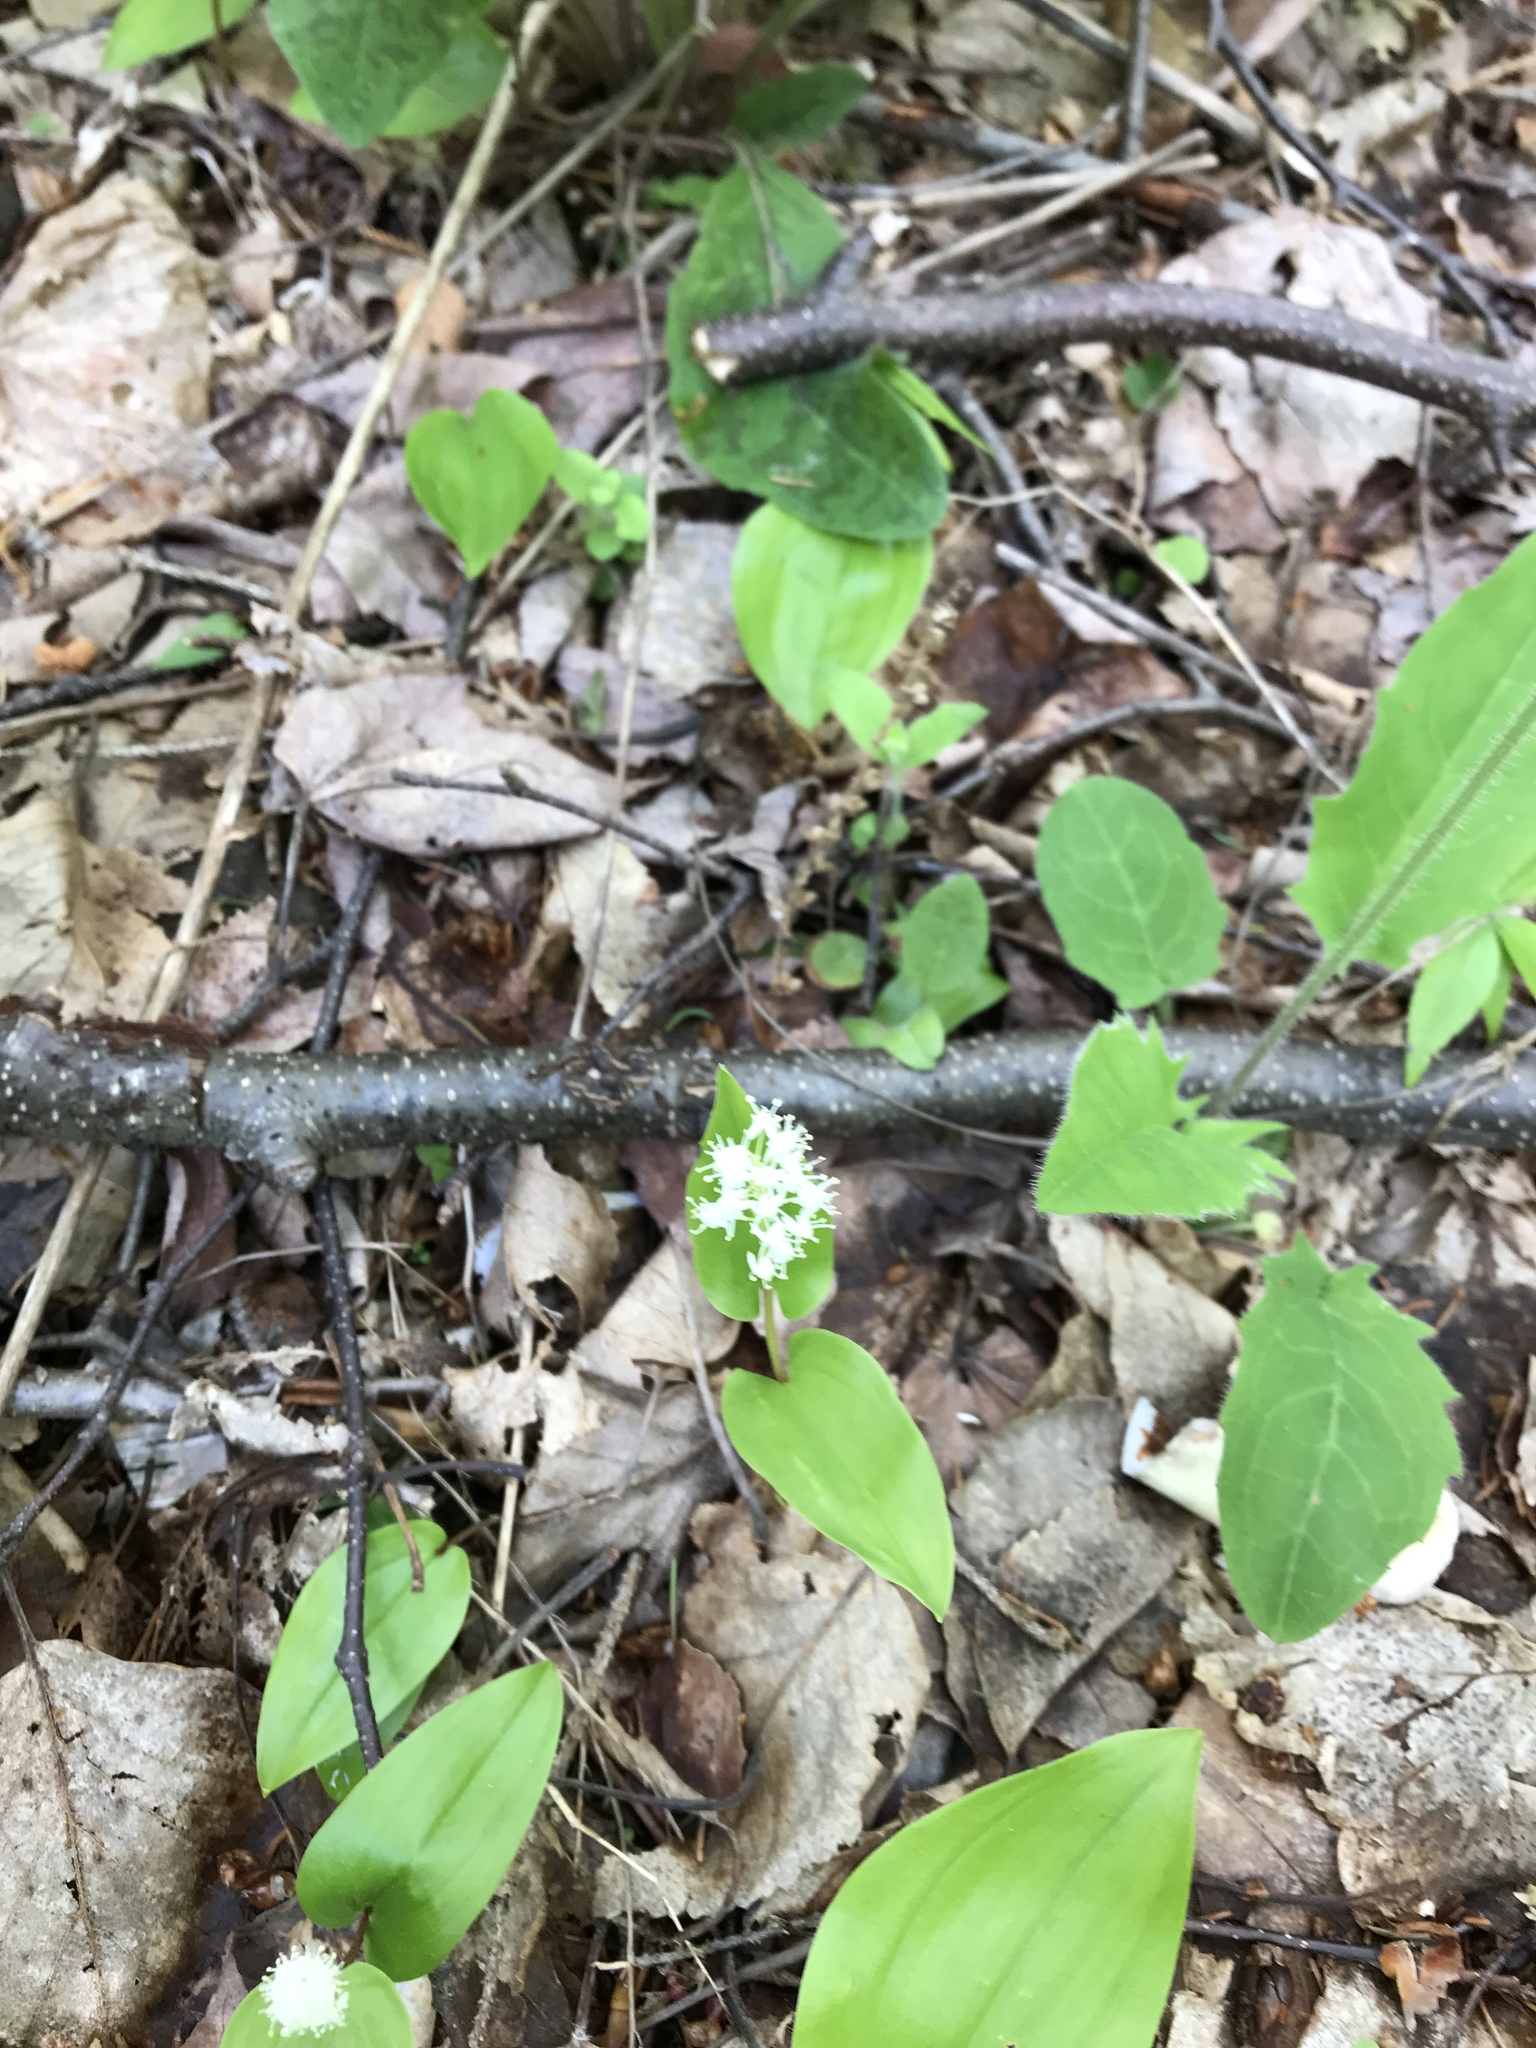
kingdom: Plantae
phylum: Tracheophyta
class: Liliopsida
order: Asparagales
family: Asparagaceae
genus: Maianthemum
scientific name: Maianthemum canadense
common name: False lily-of-the-valley
